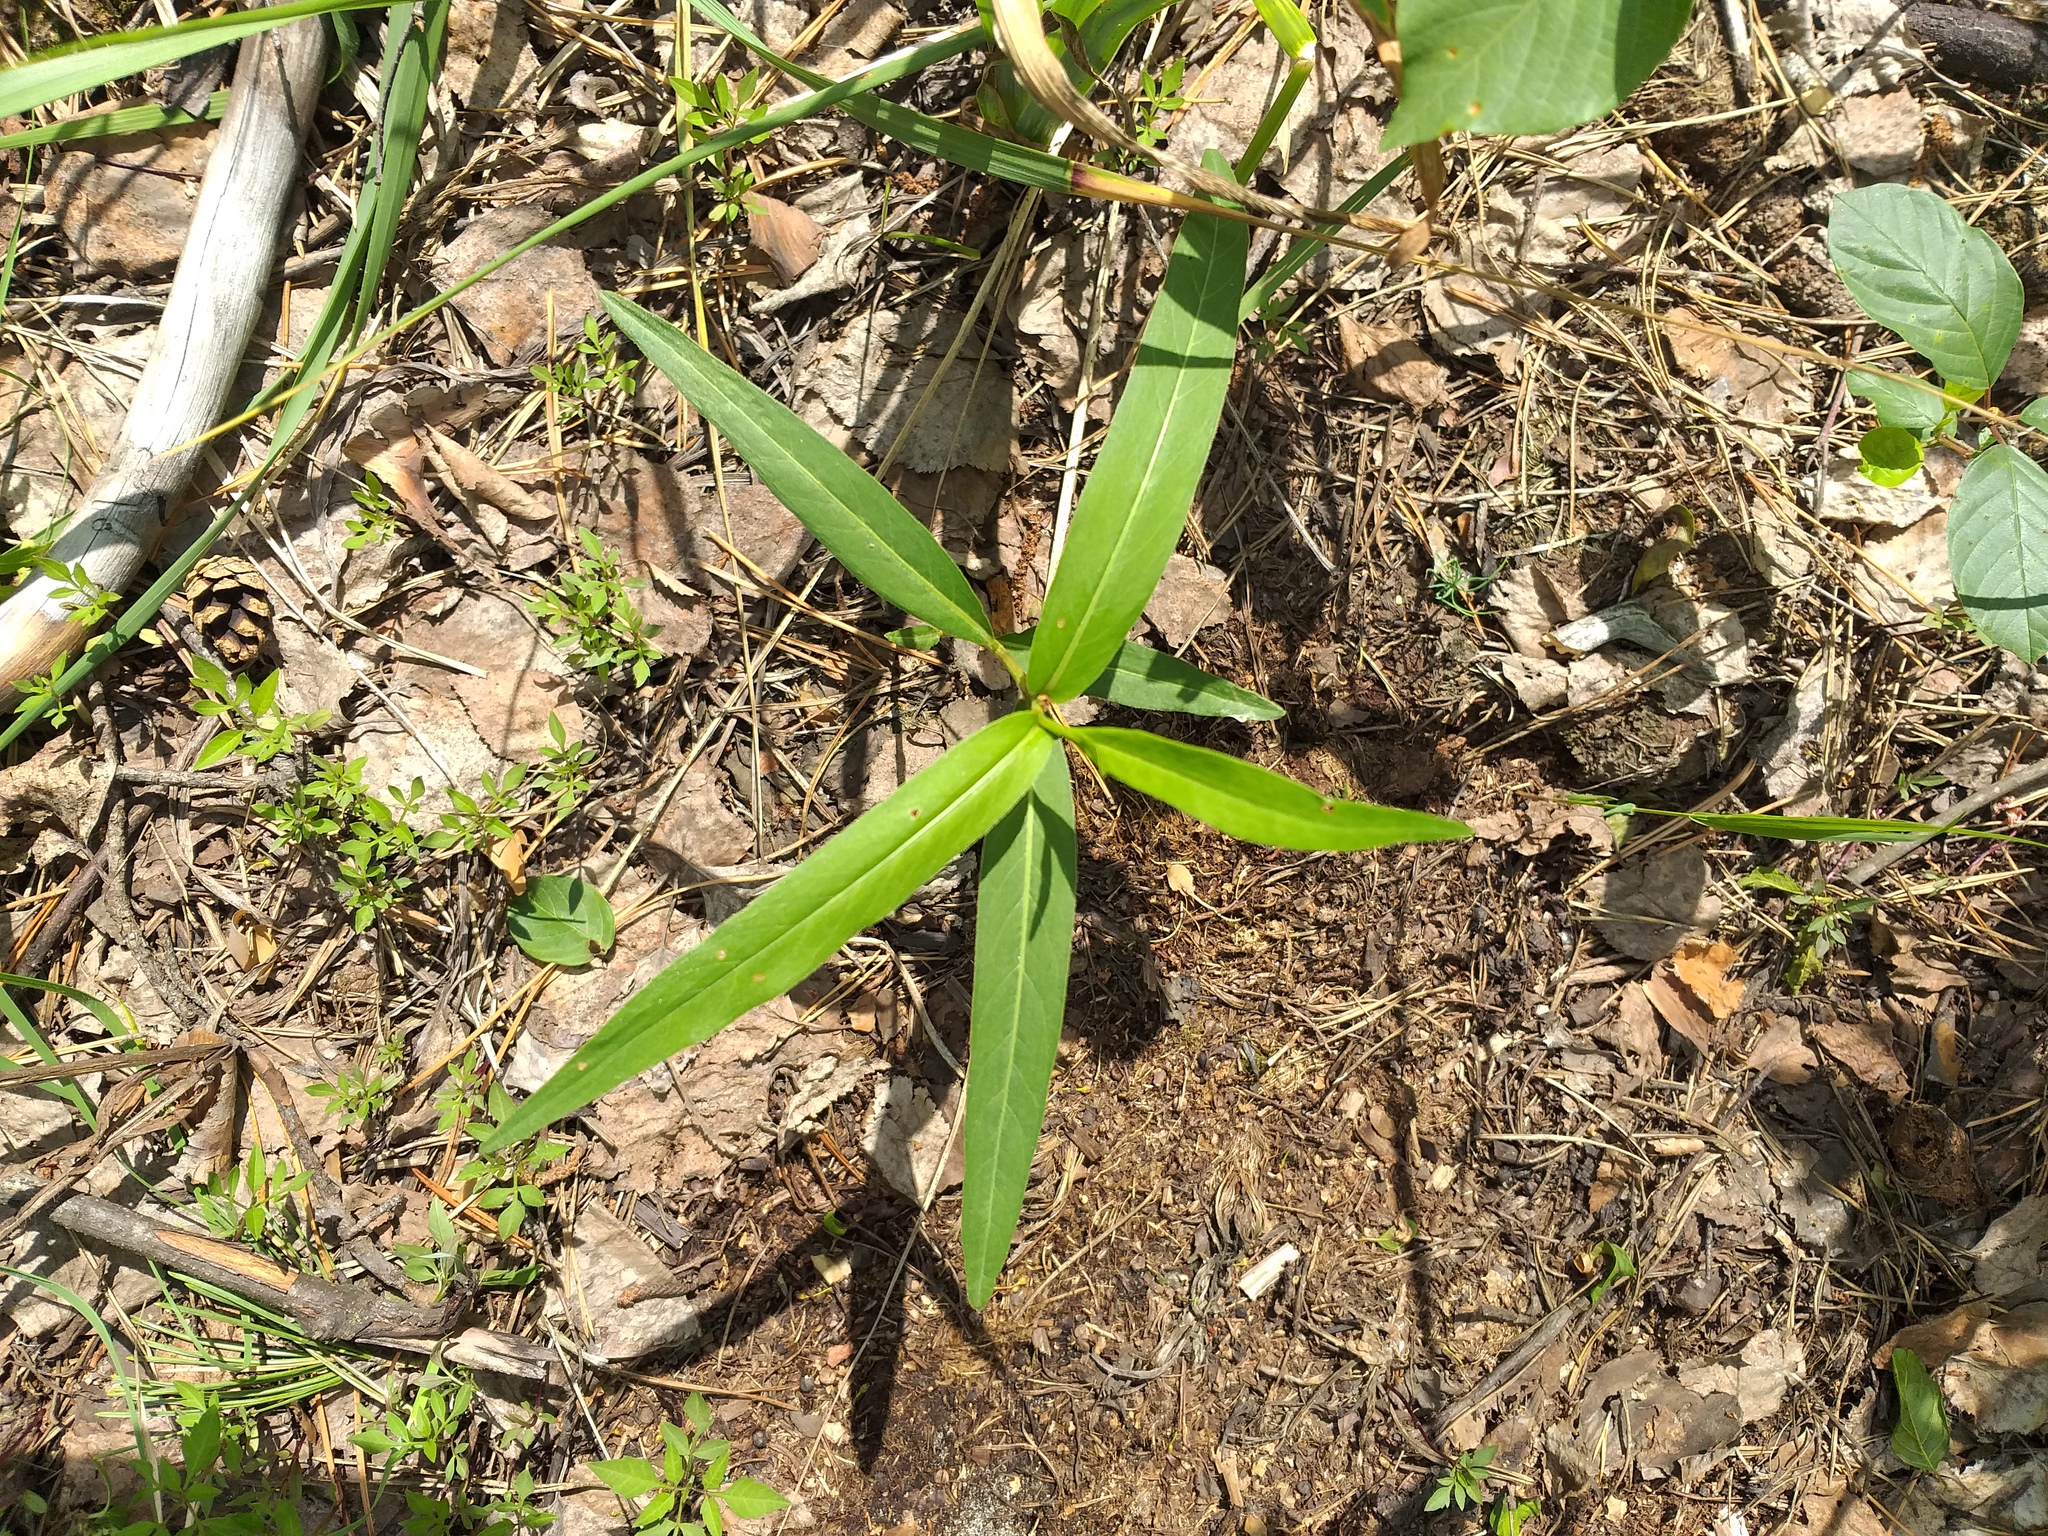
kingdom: Plantae
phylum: Tracheophyta
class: Magnoliopsida
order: Caryophyllales
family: Polygonaceae
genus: Persicaria
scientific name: Persicaria amphibia
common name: Amphibious bistort
